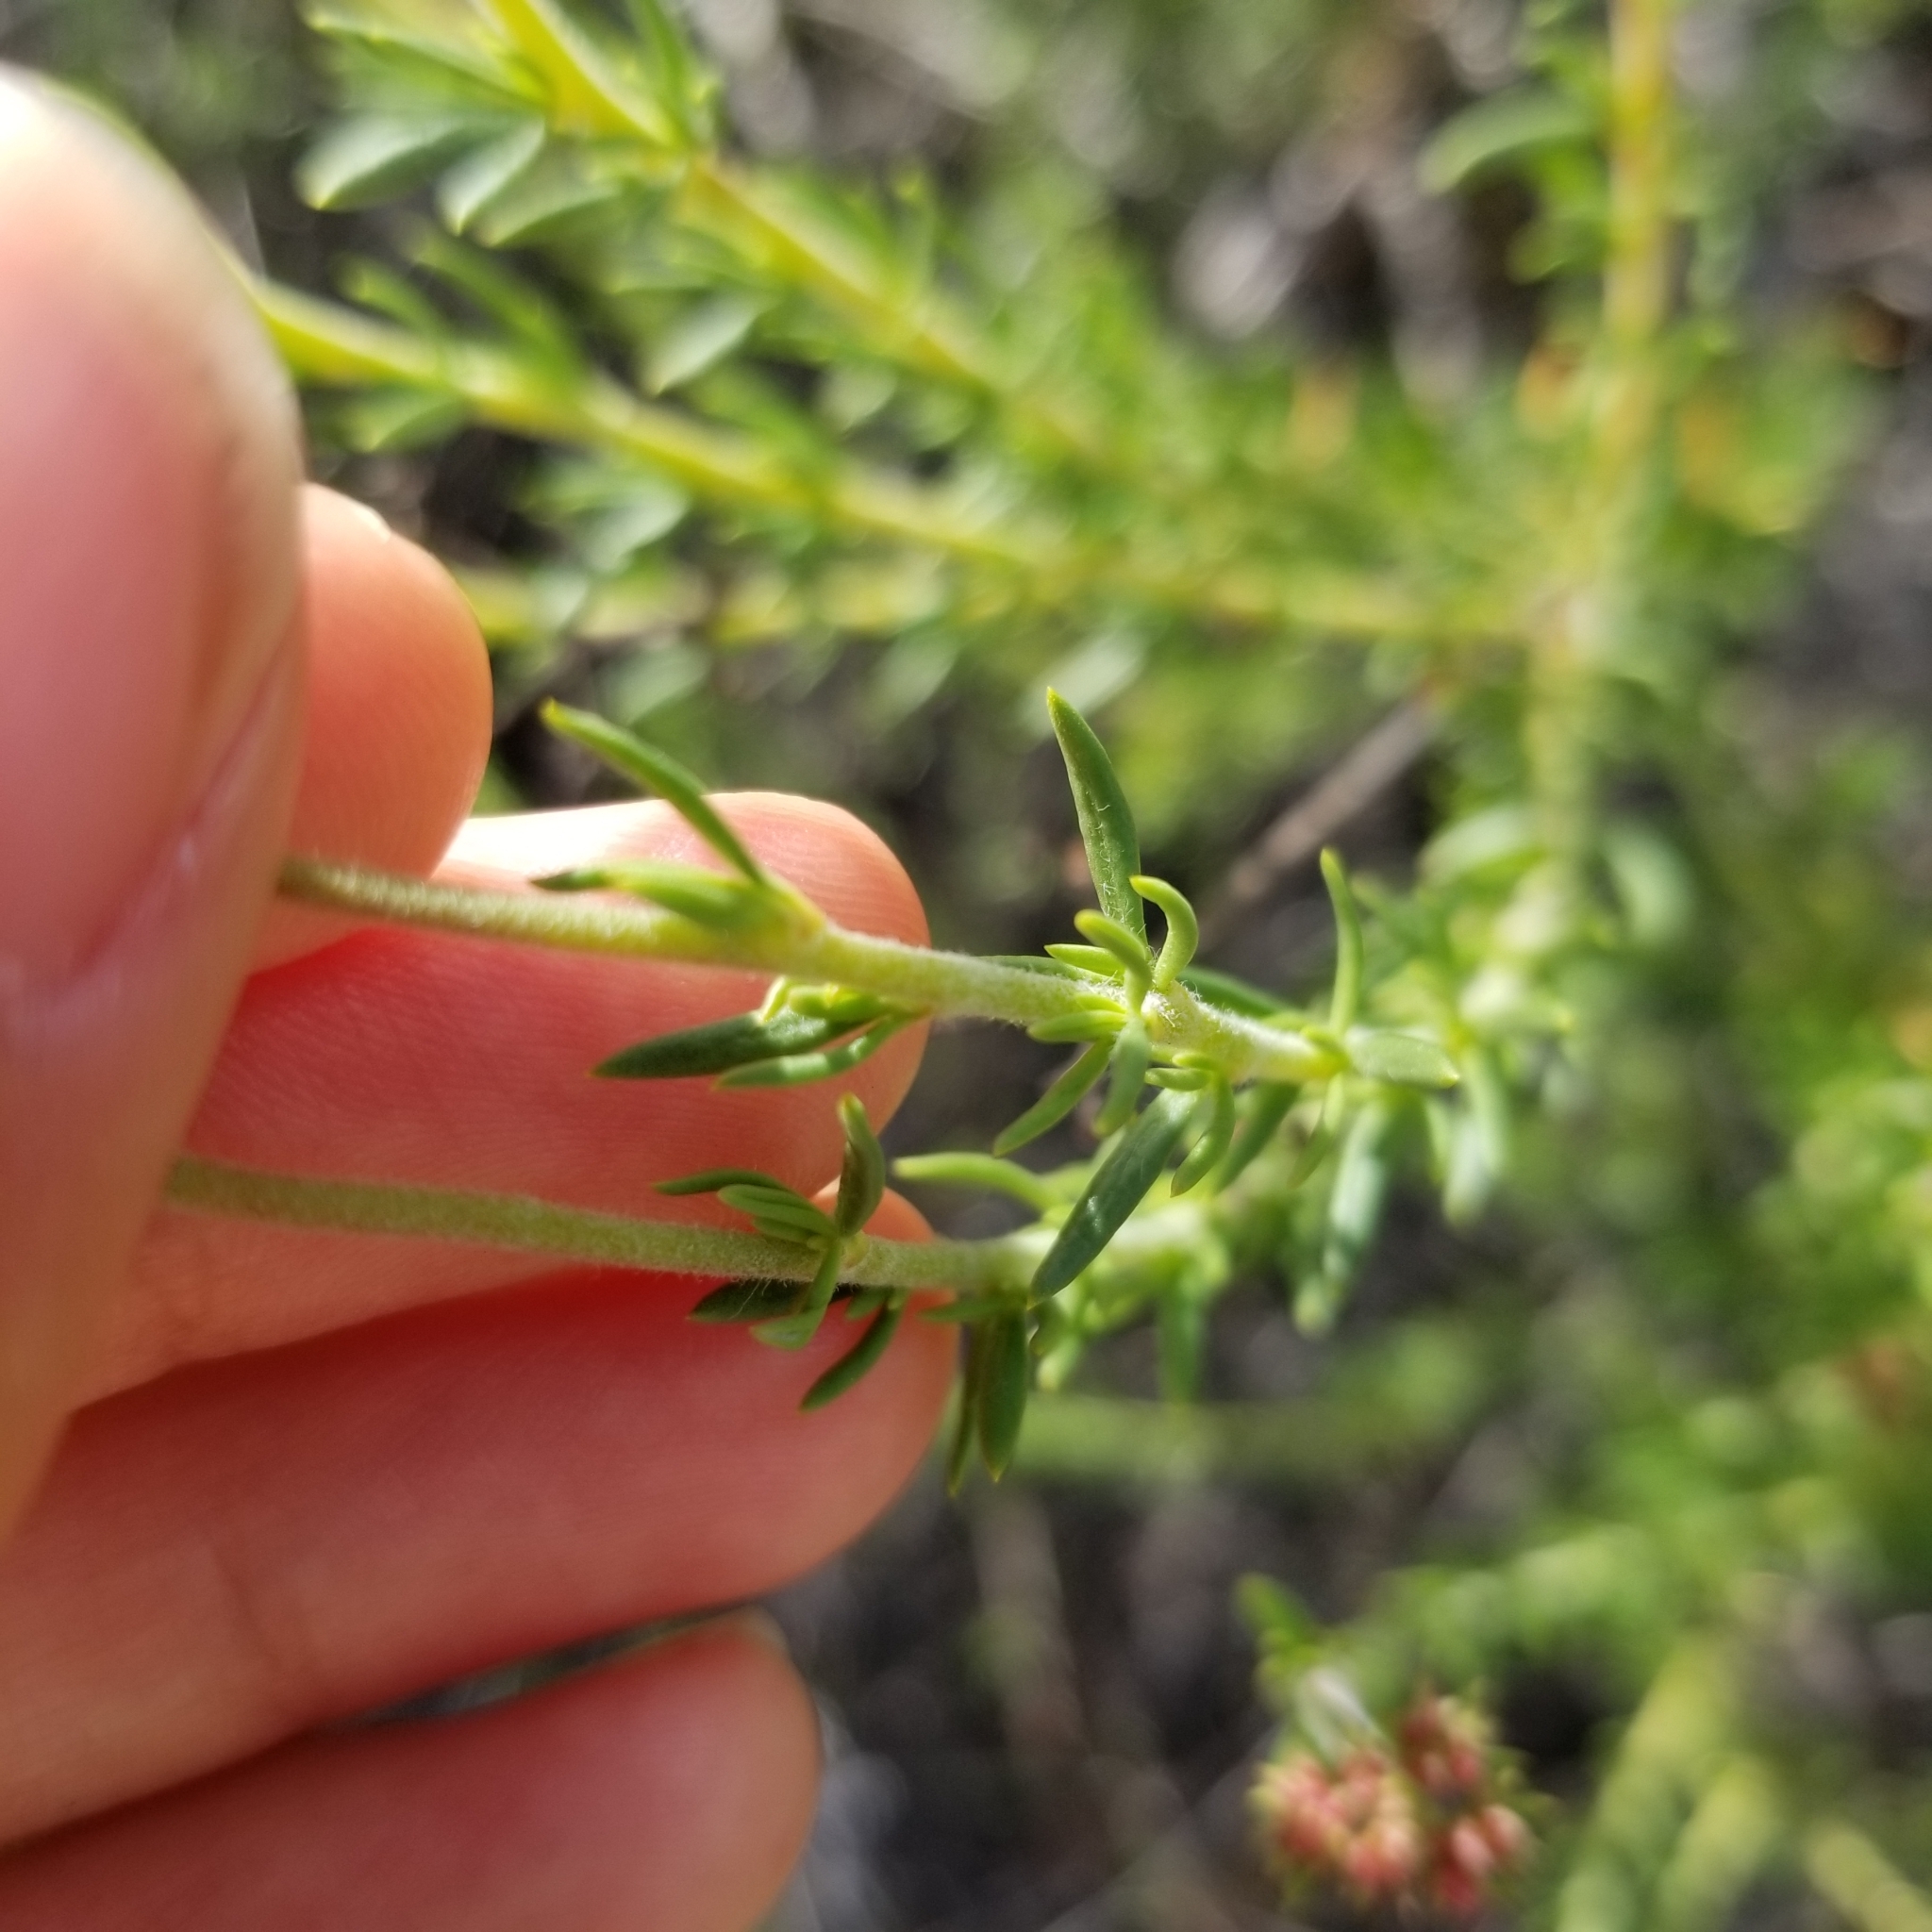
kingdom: Plantae
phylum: Tracheophyta
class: Magnoliopsida
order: Caryophyllales
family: Polygonaceae
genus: Eriogonum
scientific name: Eriogonum fasciculatum
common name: California wild buckwheat
